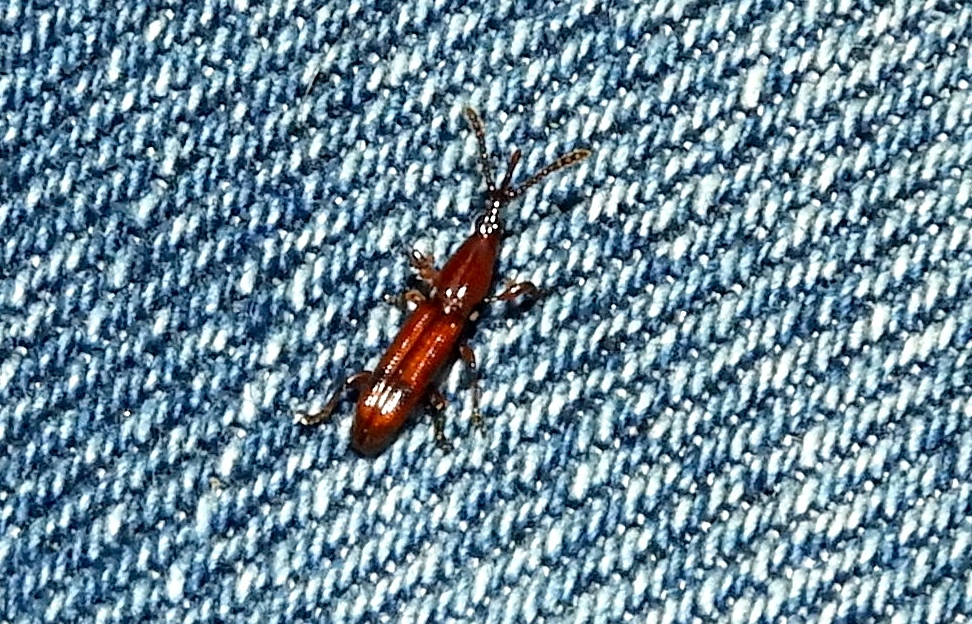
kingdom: Animalia
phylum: Arthropoda
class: Insecta
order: Coleoptera
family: Brentidae
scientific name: Brentidae
